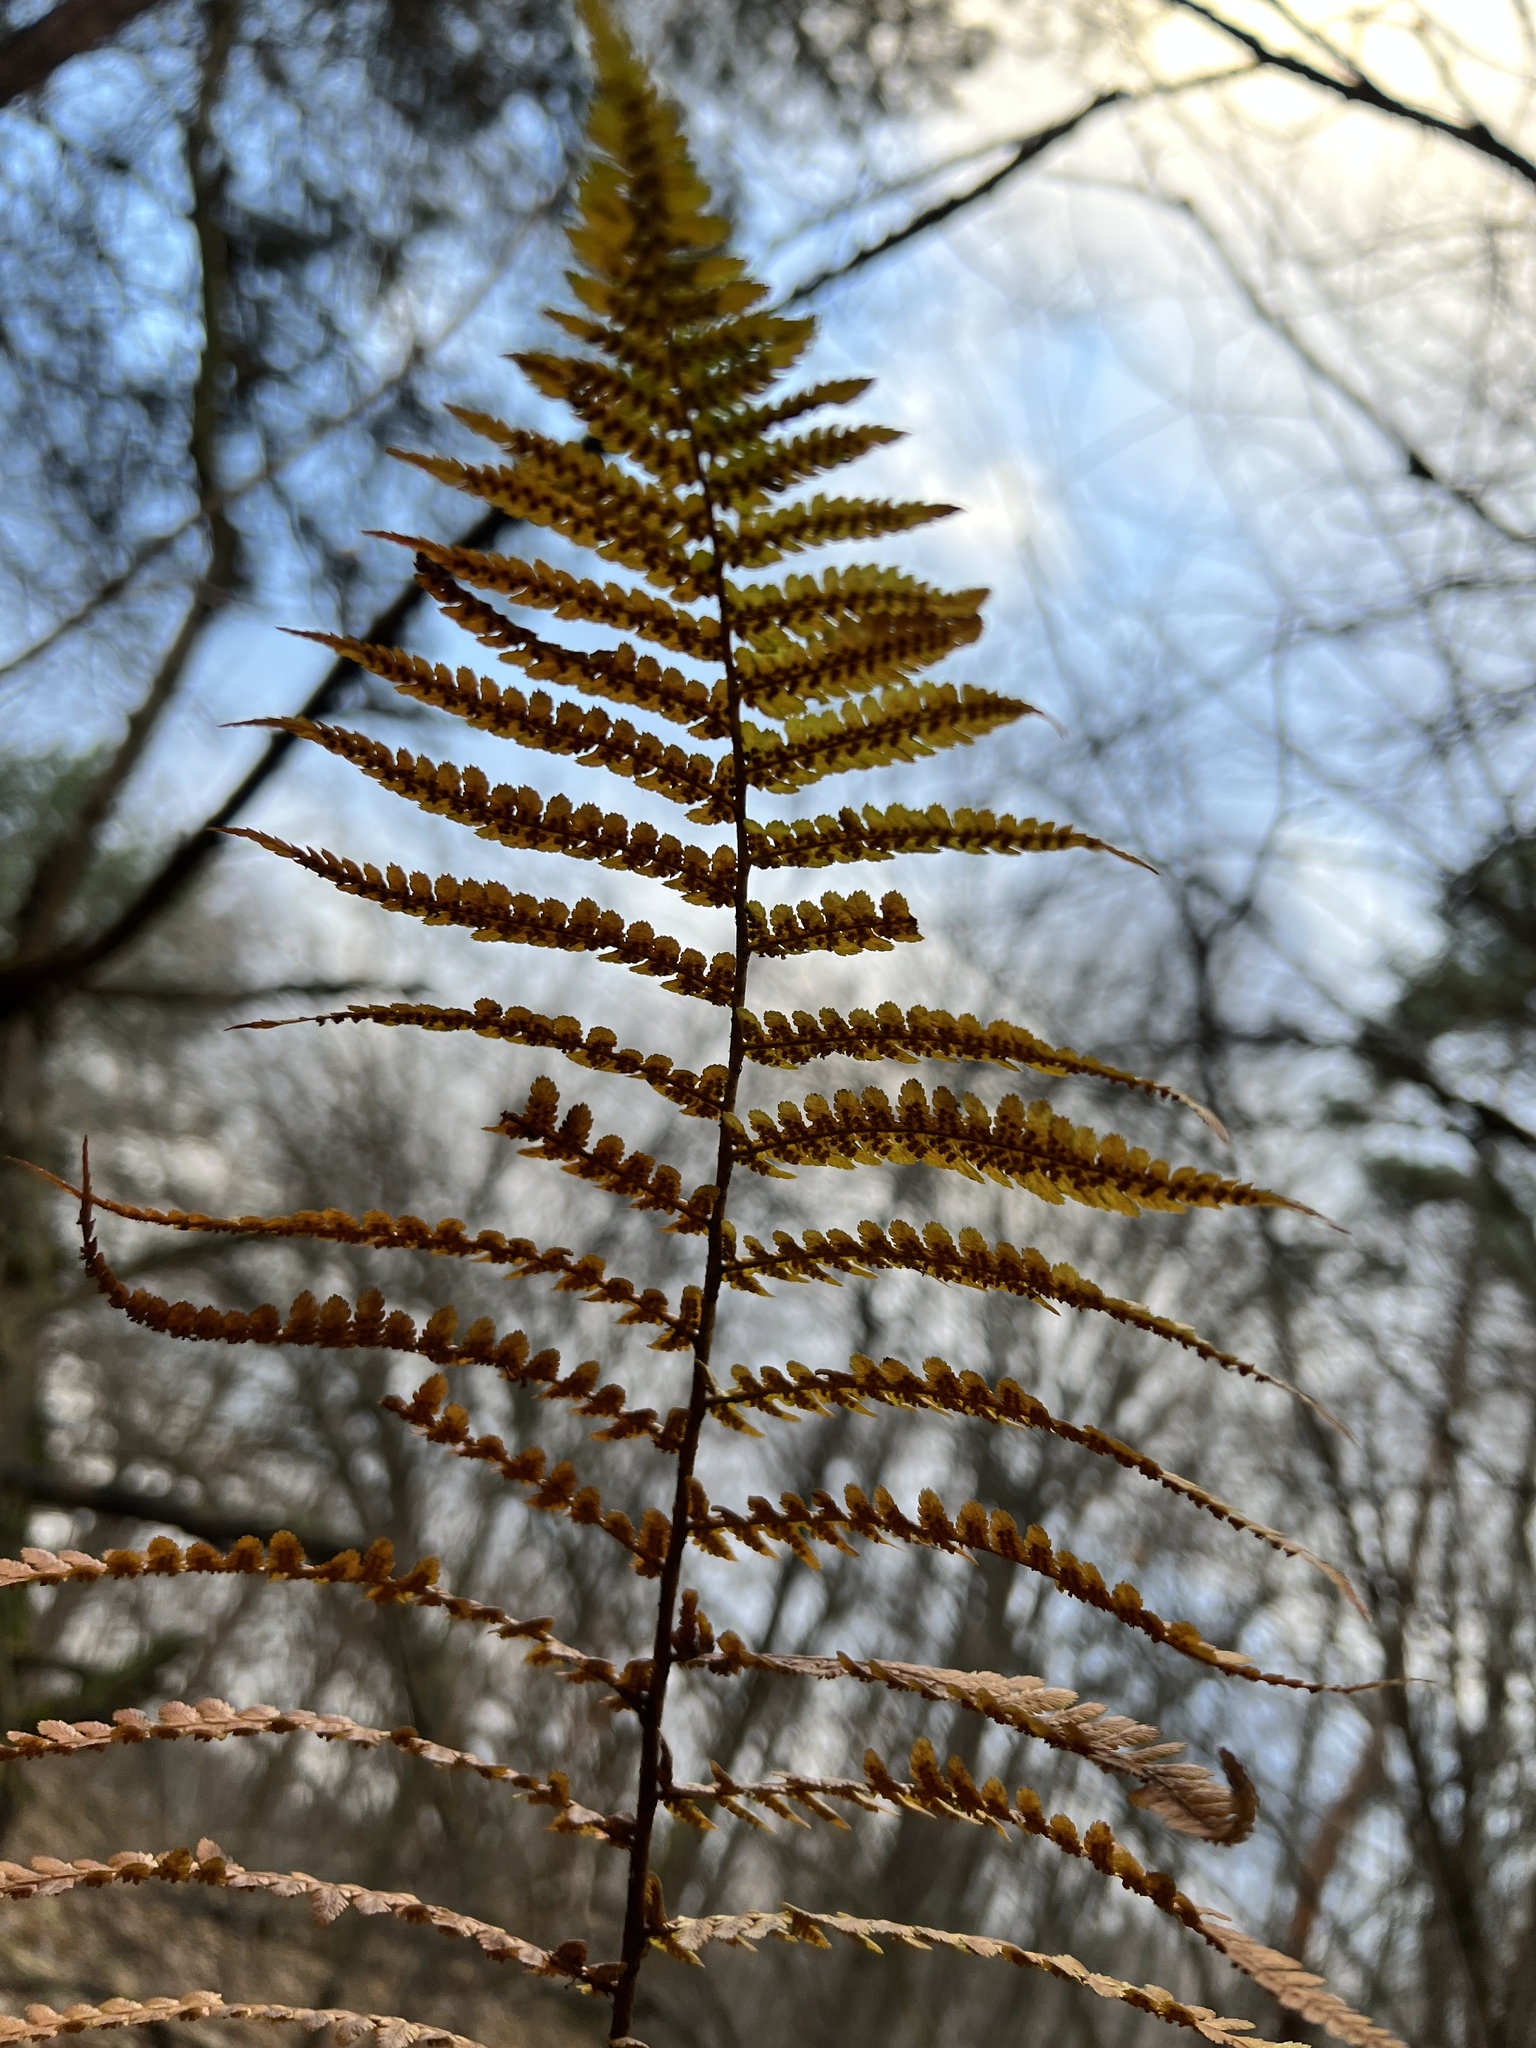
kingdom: Plantae
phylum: Tracheophyta
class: Polypodiopsida
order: Polypodiales
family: Dryopteridaceae
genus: Dryopteris
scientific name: Dryopteris filix-mas
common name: Male fern
